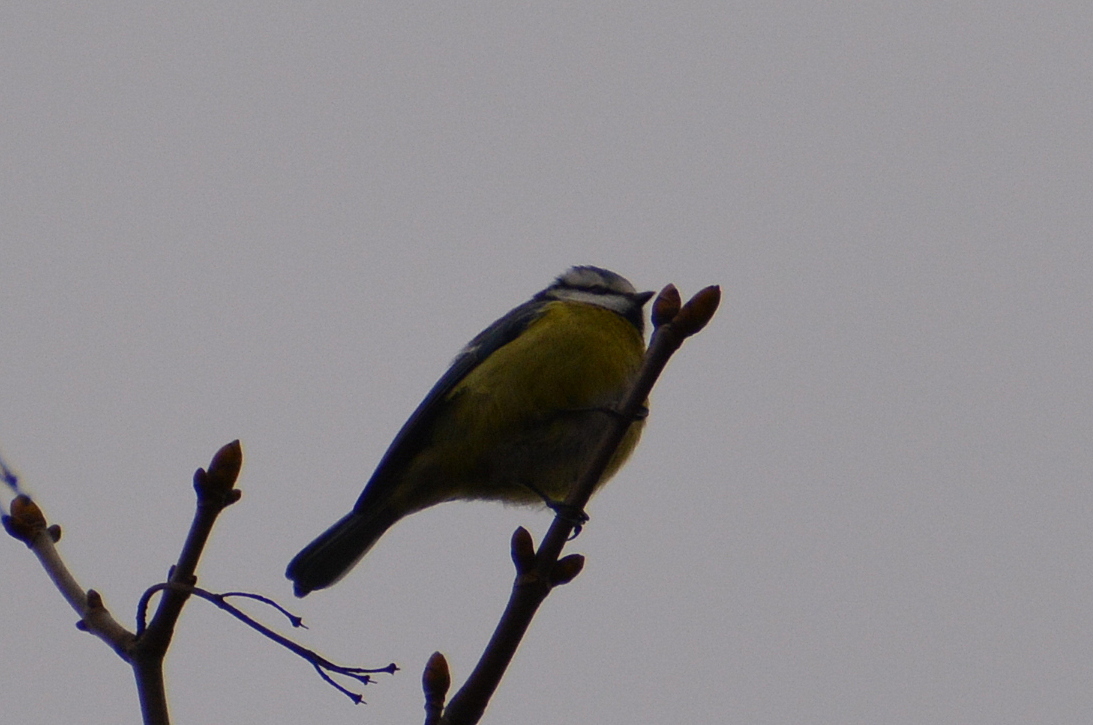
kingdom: Animalia
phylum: Chordata
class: Aves
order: Passeriformes
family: Paridae
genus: Cyanistes
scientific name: Cyanistes caeruleus
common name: Eurasian blue tit
